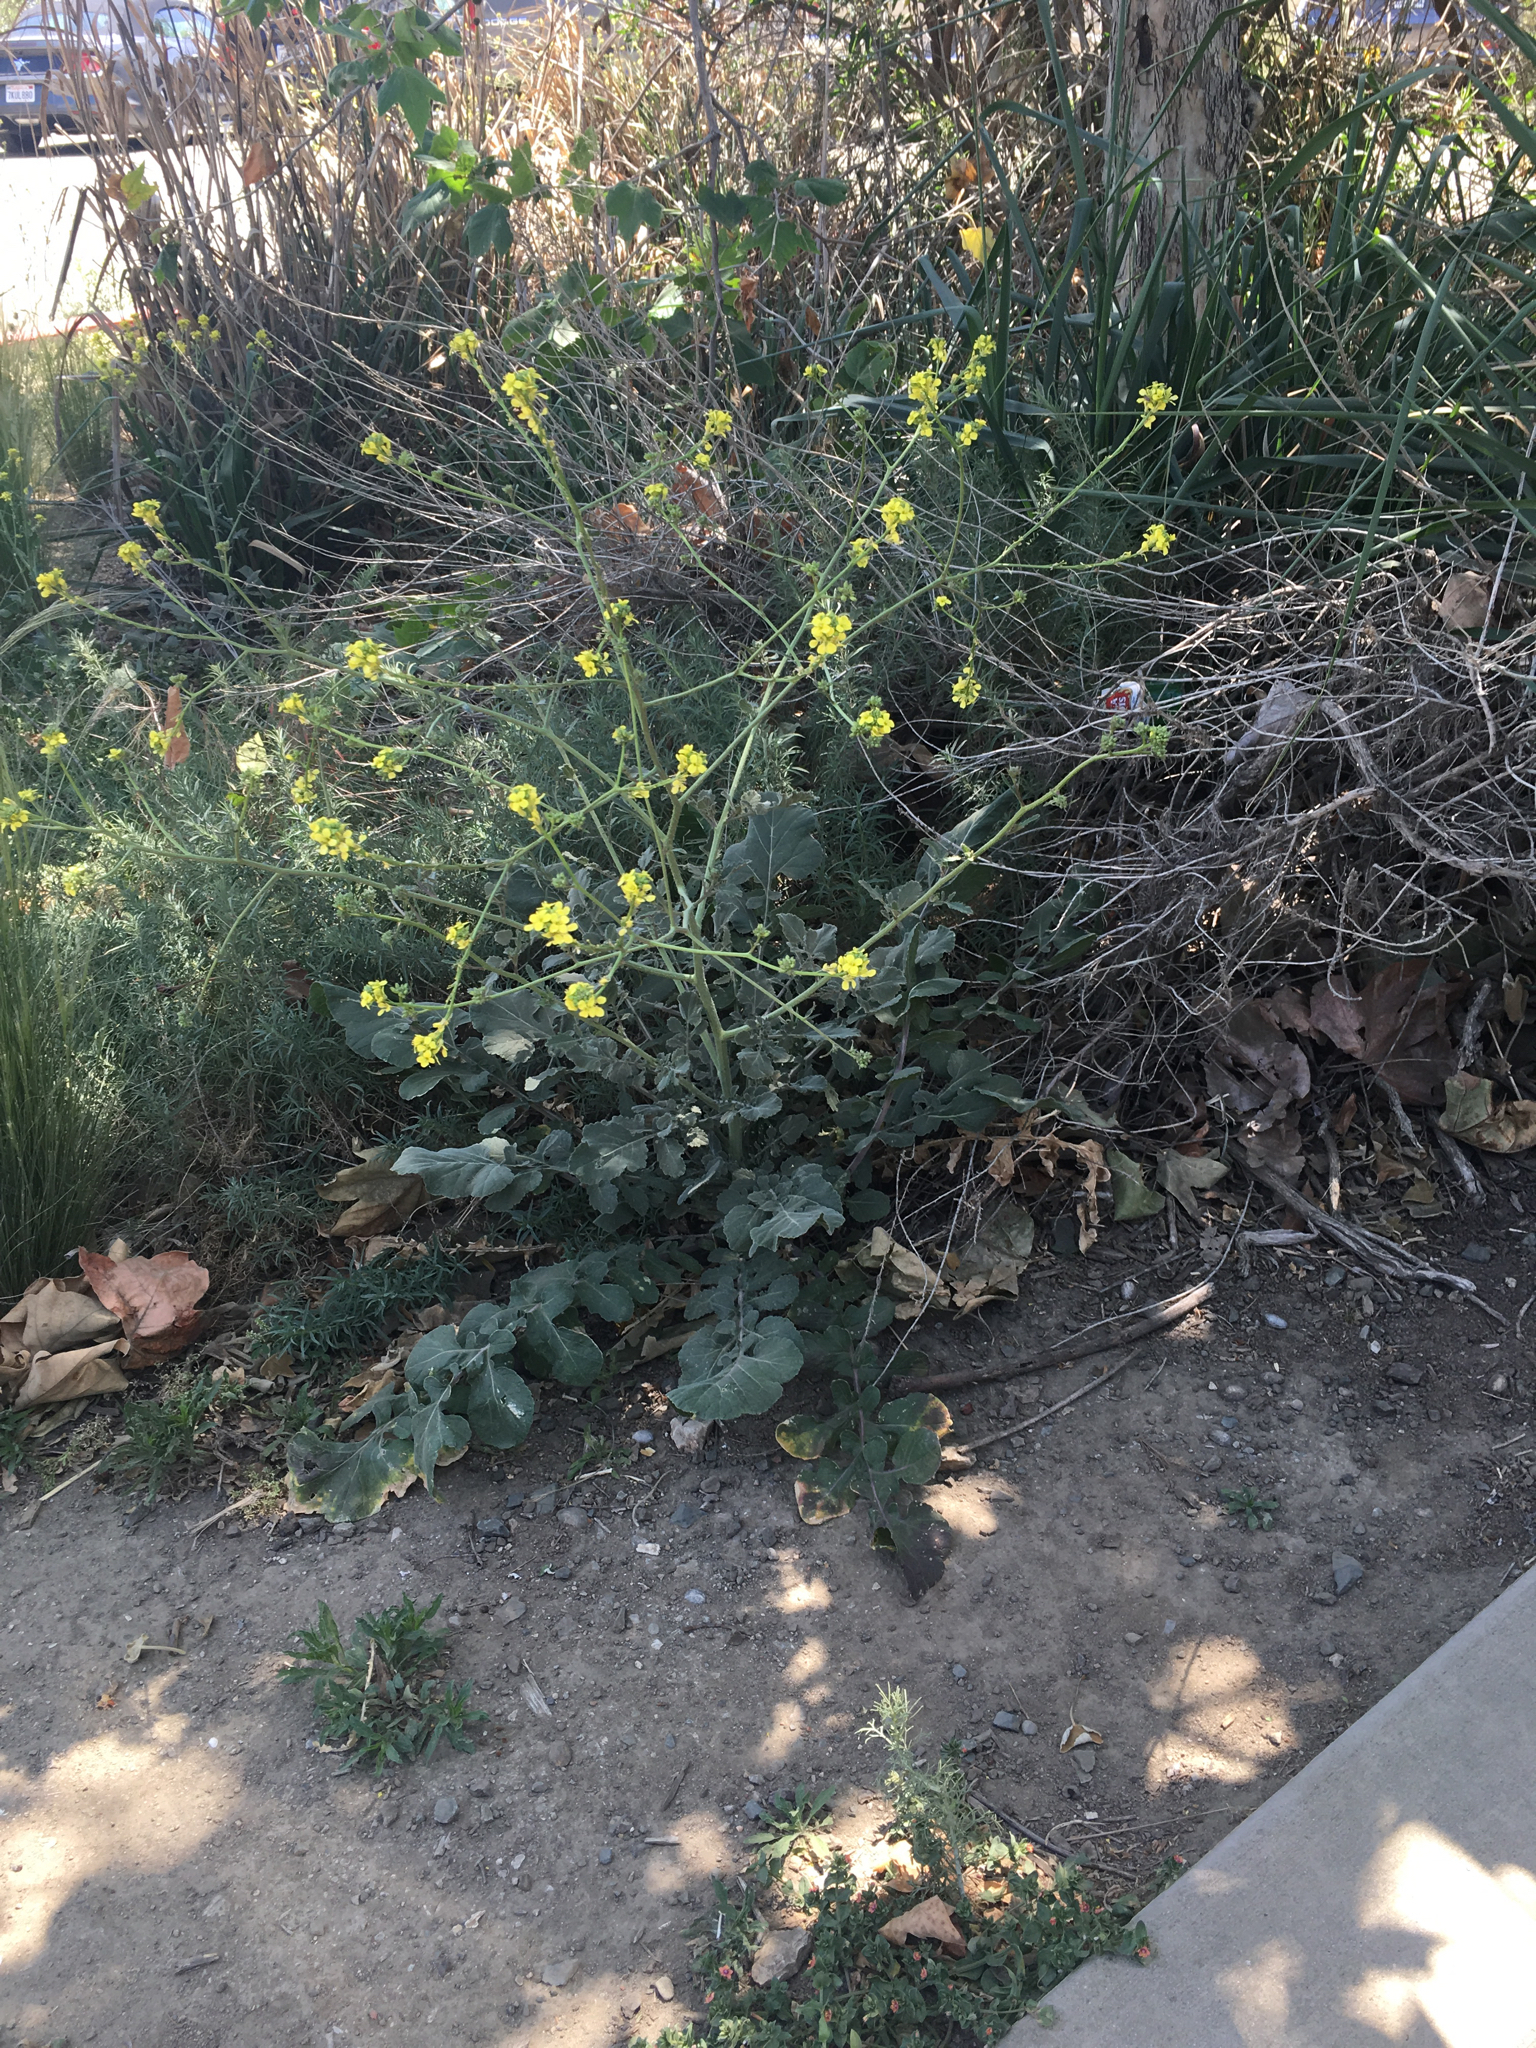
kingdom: Plantae
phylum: Tracheophyta
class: Magnoliopsida
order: Brassicales
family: Brassicaceae
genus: Hirschfeldia
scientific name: Hirschfeldia incana
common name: Hoary mustard
